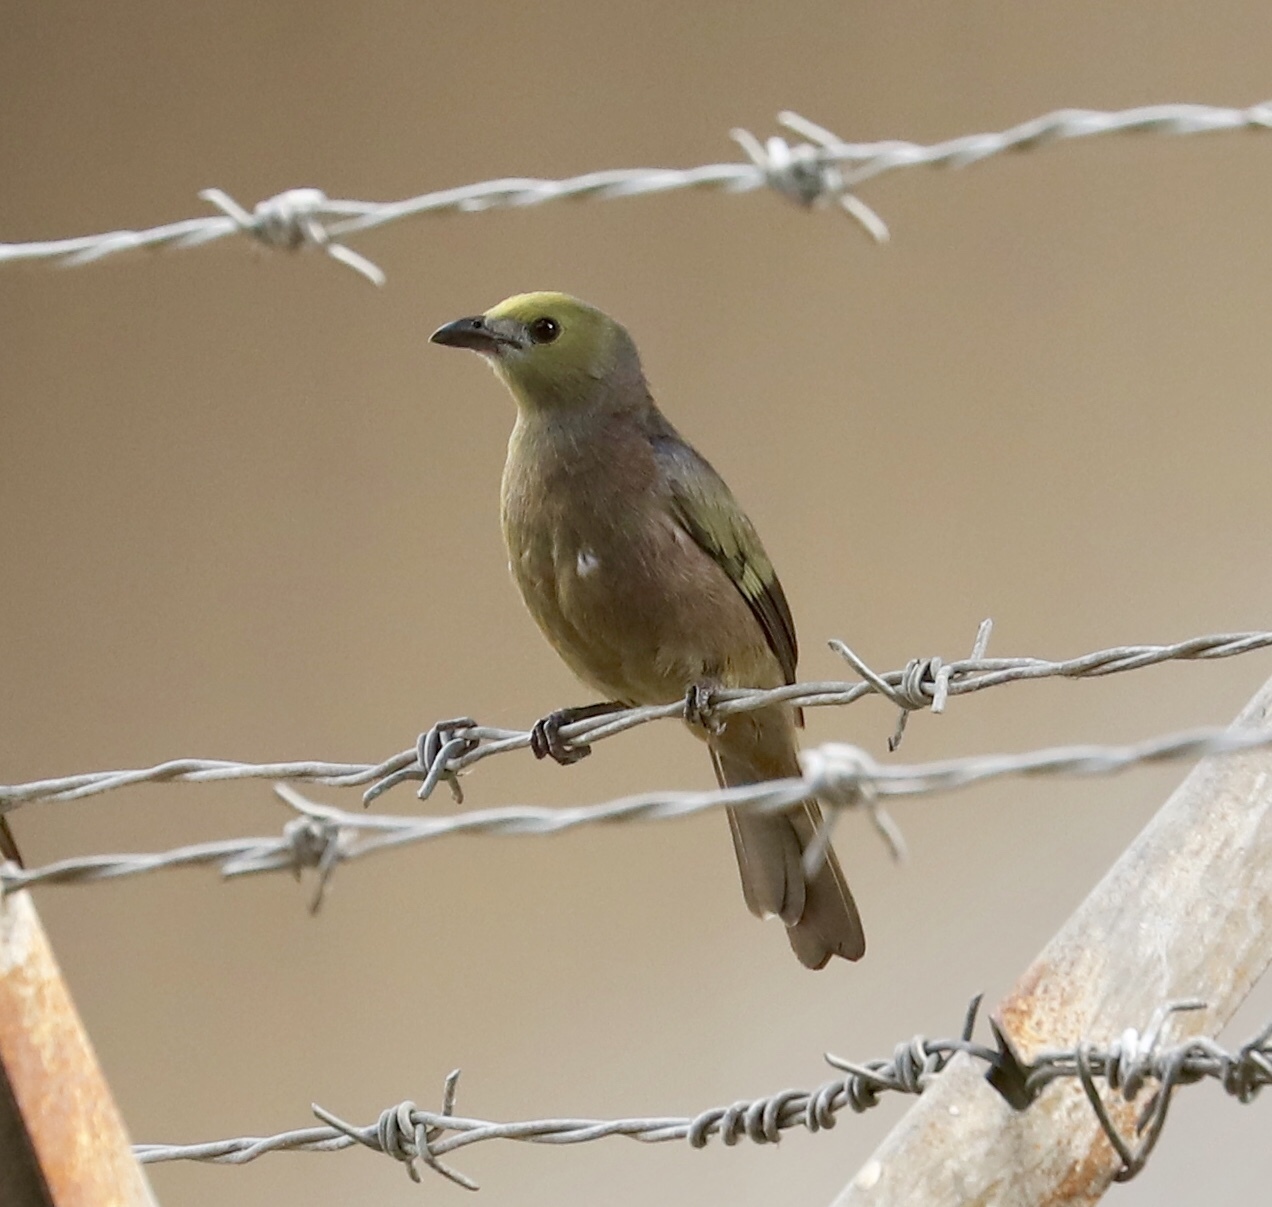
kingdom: Animalia
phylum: Chordata
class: Aves
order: Passeriformes
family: Thraupidae
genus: Thraupis
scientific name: Thraupis palmarum
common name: Palm tanager
